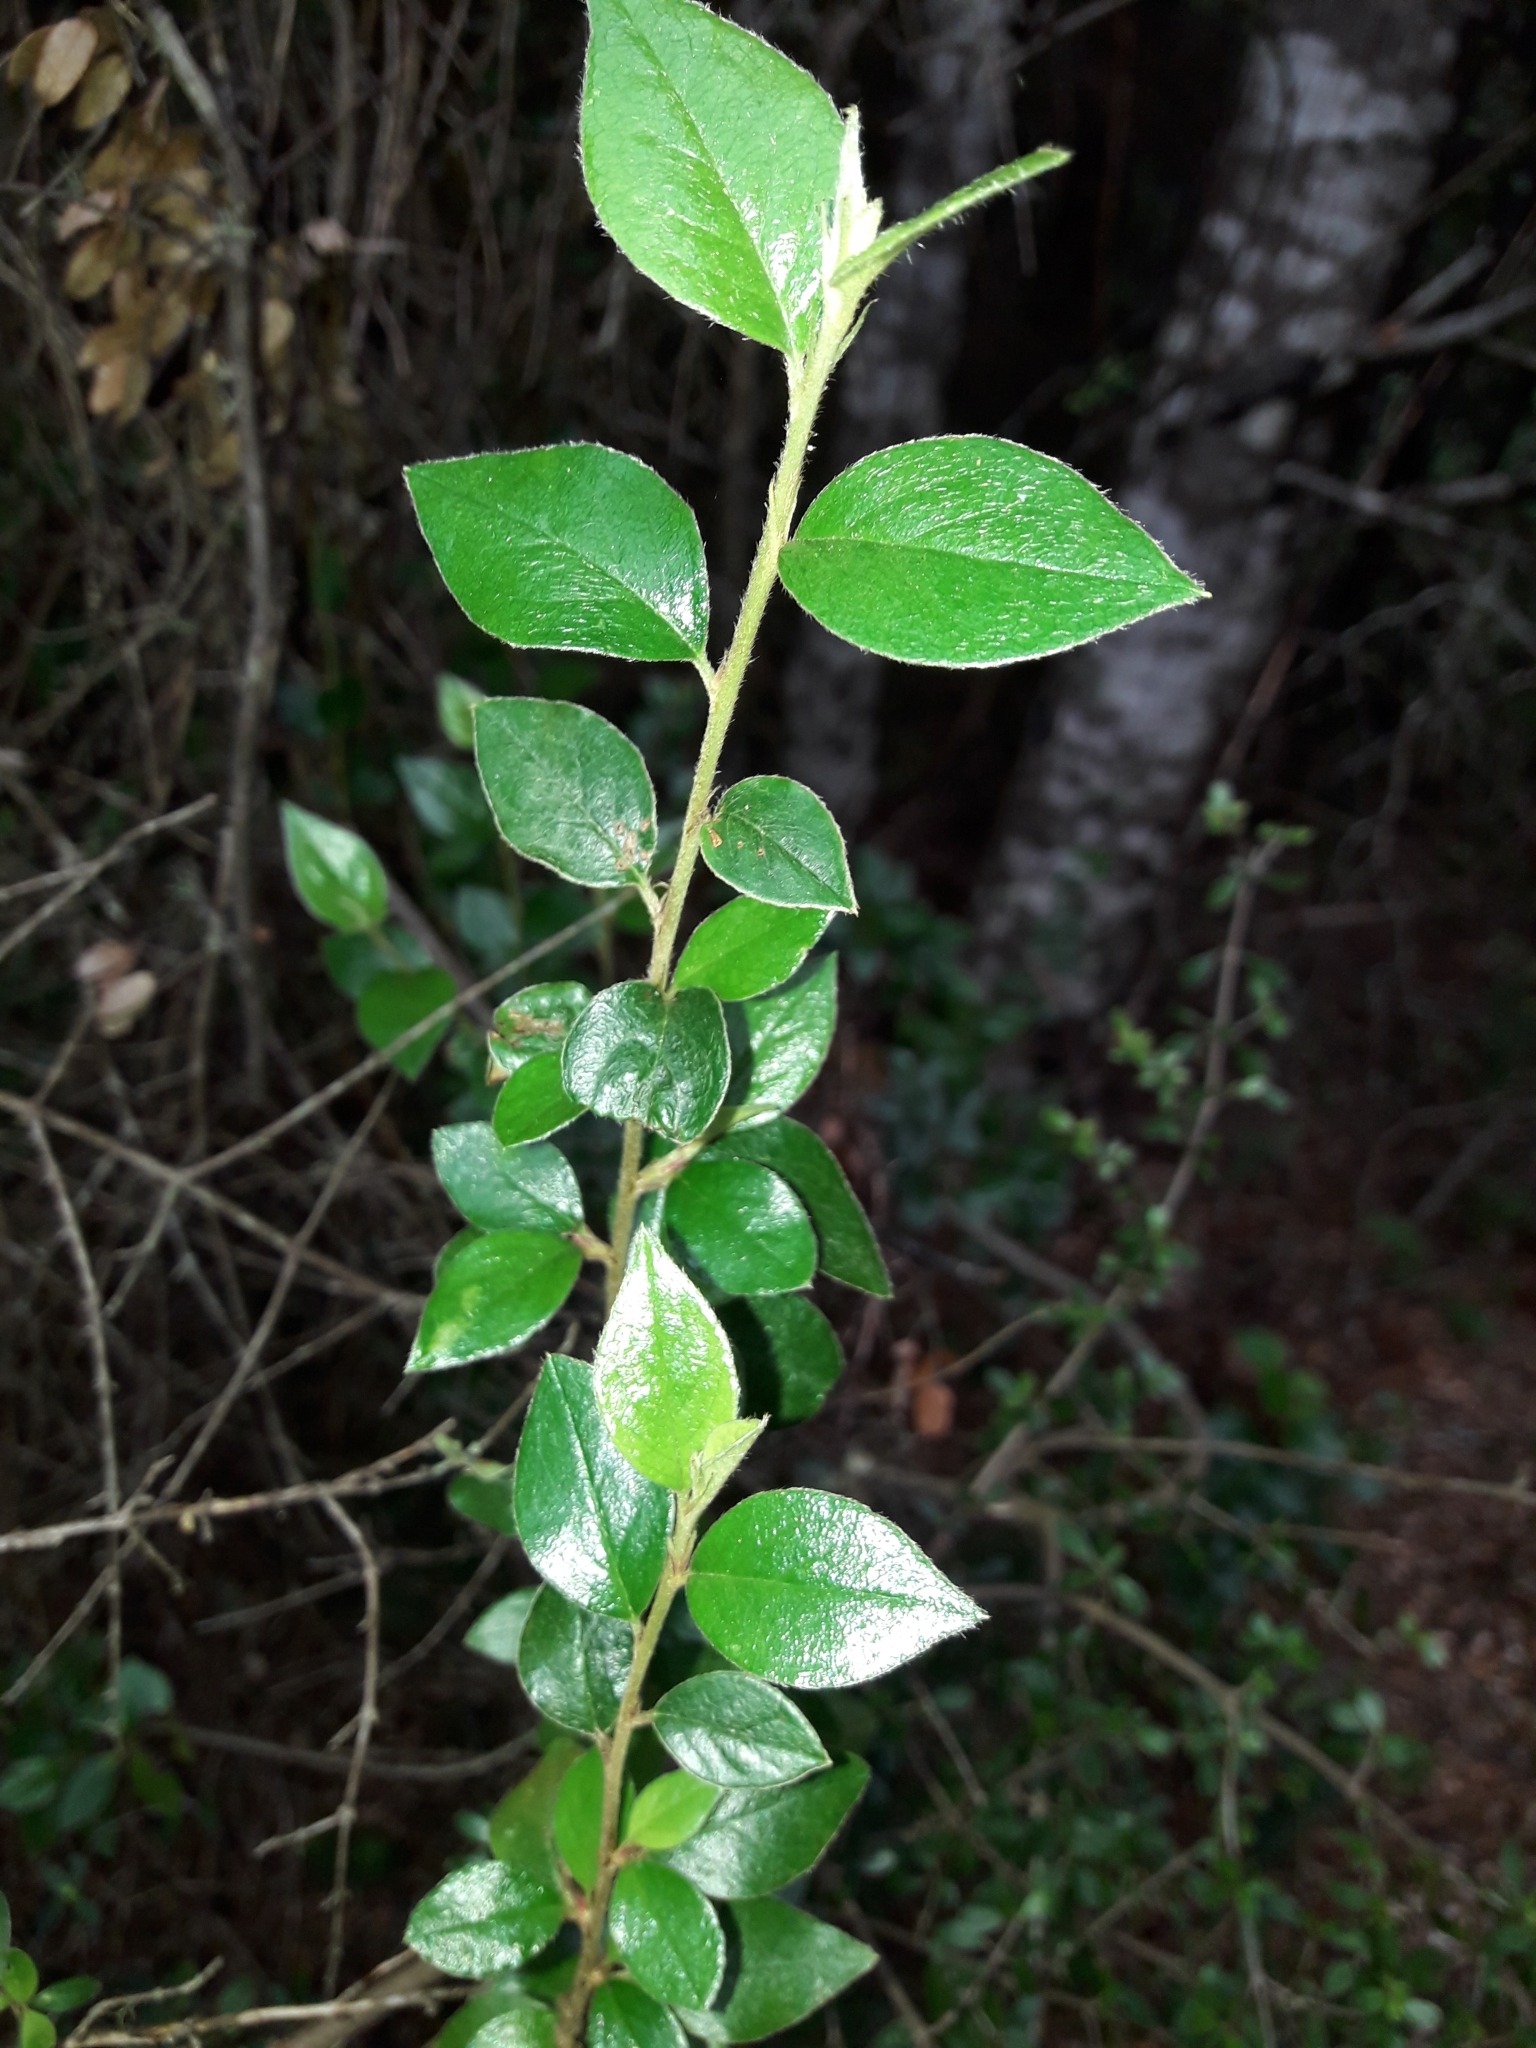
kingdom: Plantae
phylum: Tracheophyta
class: Magnoliopsida
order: Rosales
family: Rosaceae
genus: Cotoneaster
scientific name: Cotoneaster simonsii
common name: Himalayan cotoneaster
